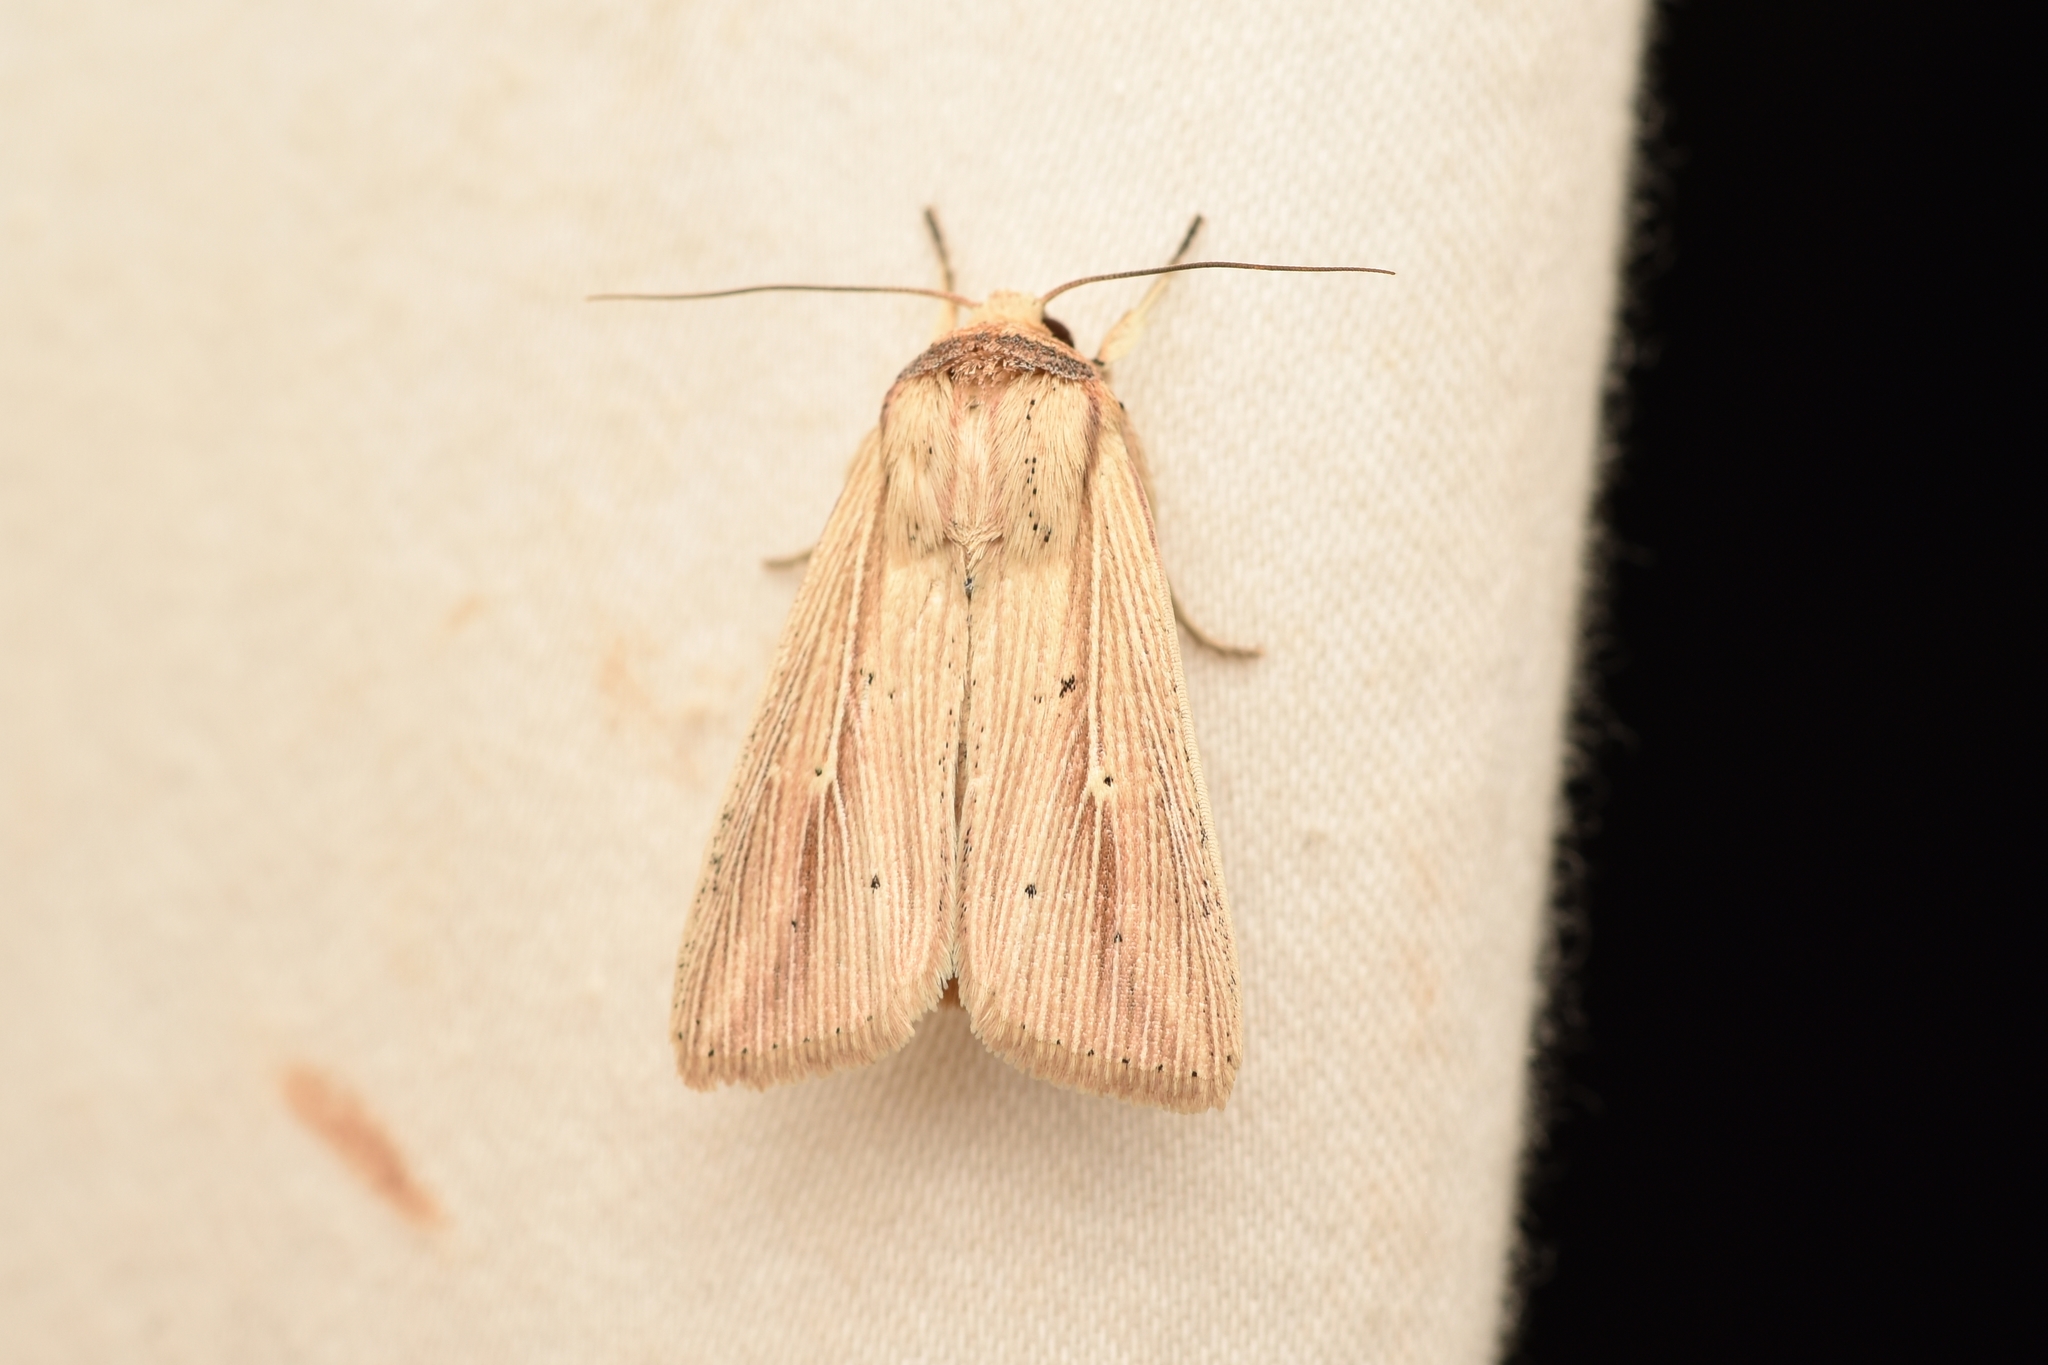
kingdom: Animalia
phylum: Arthropoda
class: Insecta
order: Lepidoptera
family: Noctuidae
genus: Leucania
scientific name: Leucania adjuta
